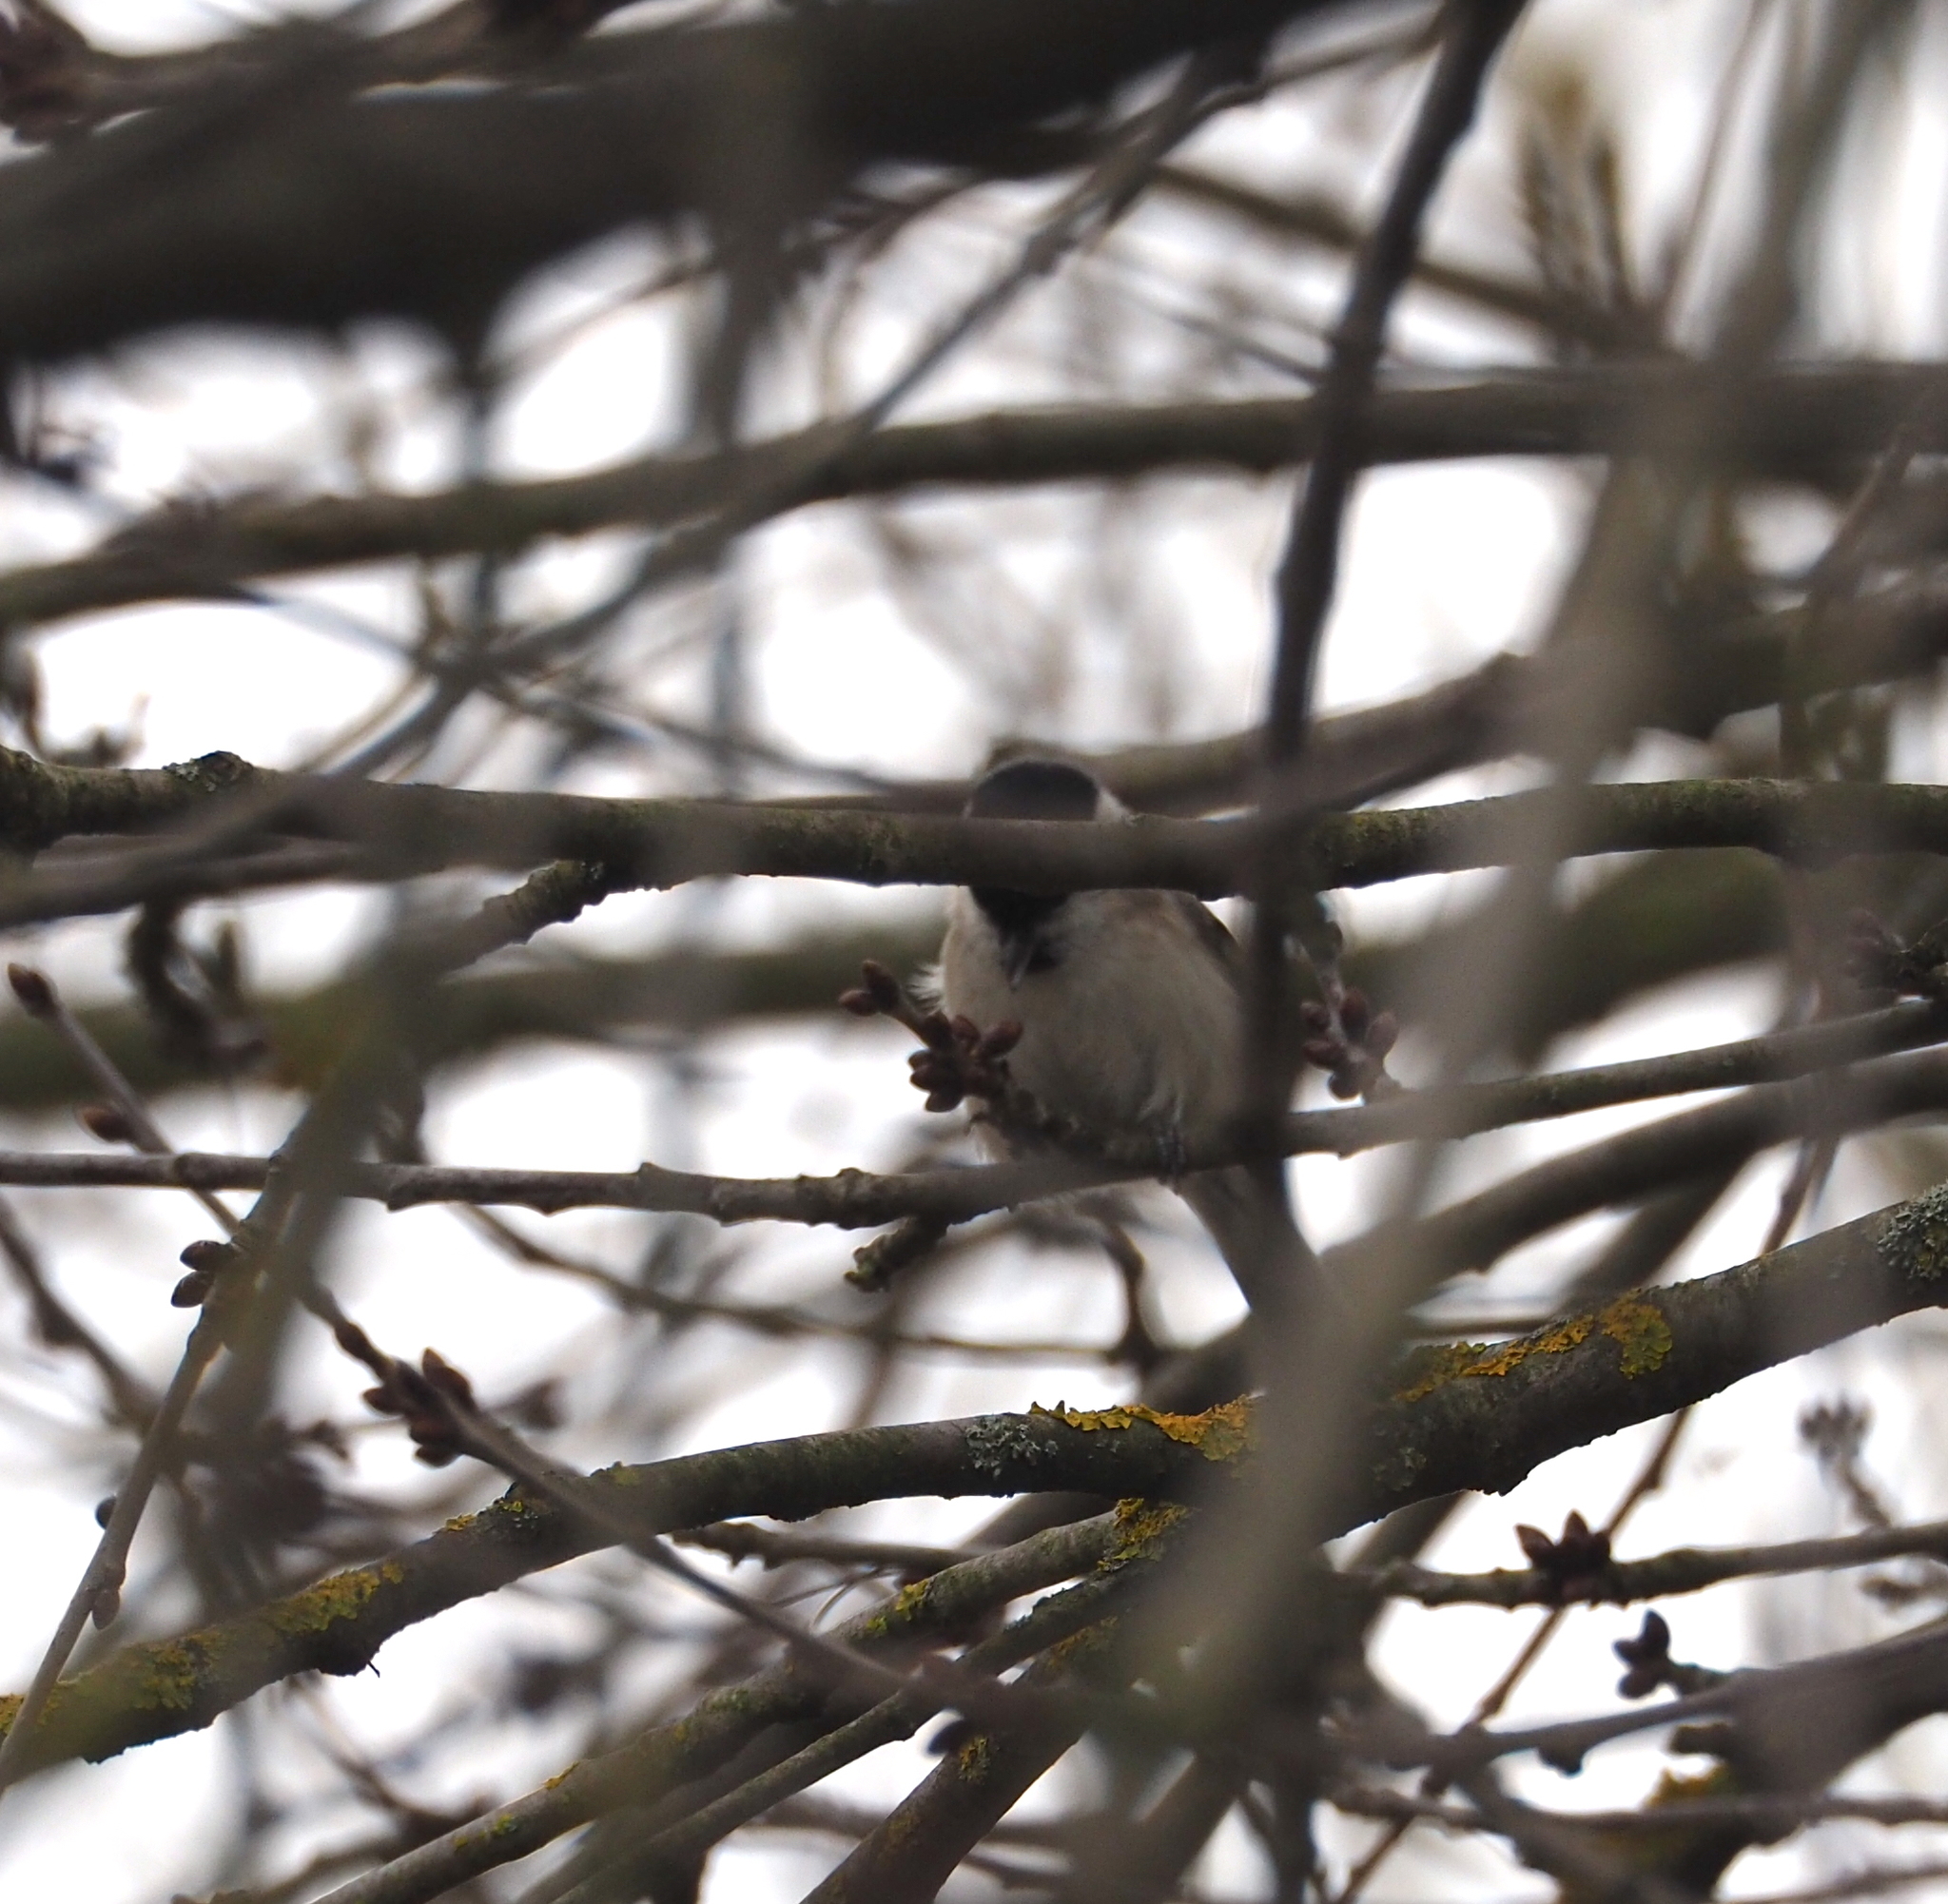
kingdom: Animalia
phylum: Chordata
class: Aves
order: Passeriformes
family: Paridae
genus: Poecile
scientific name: Poecile palustris
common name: Marsh tit
